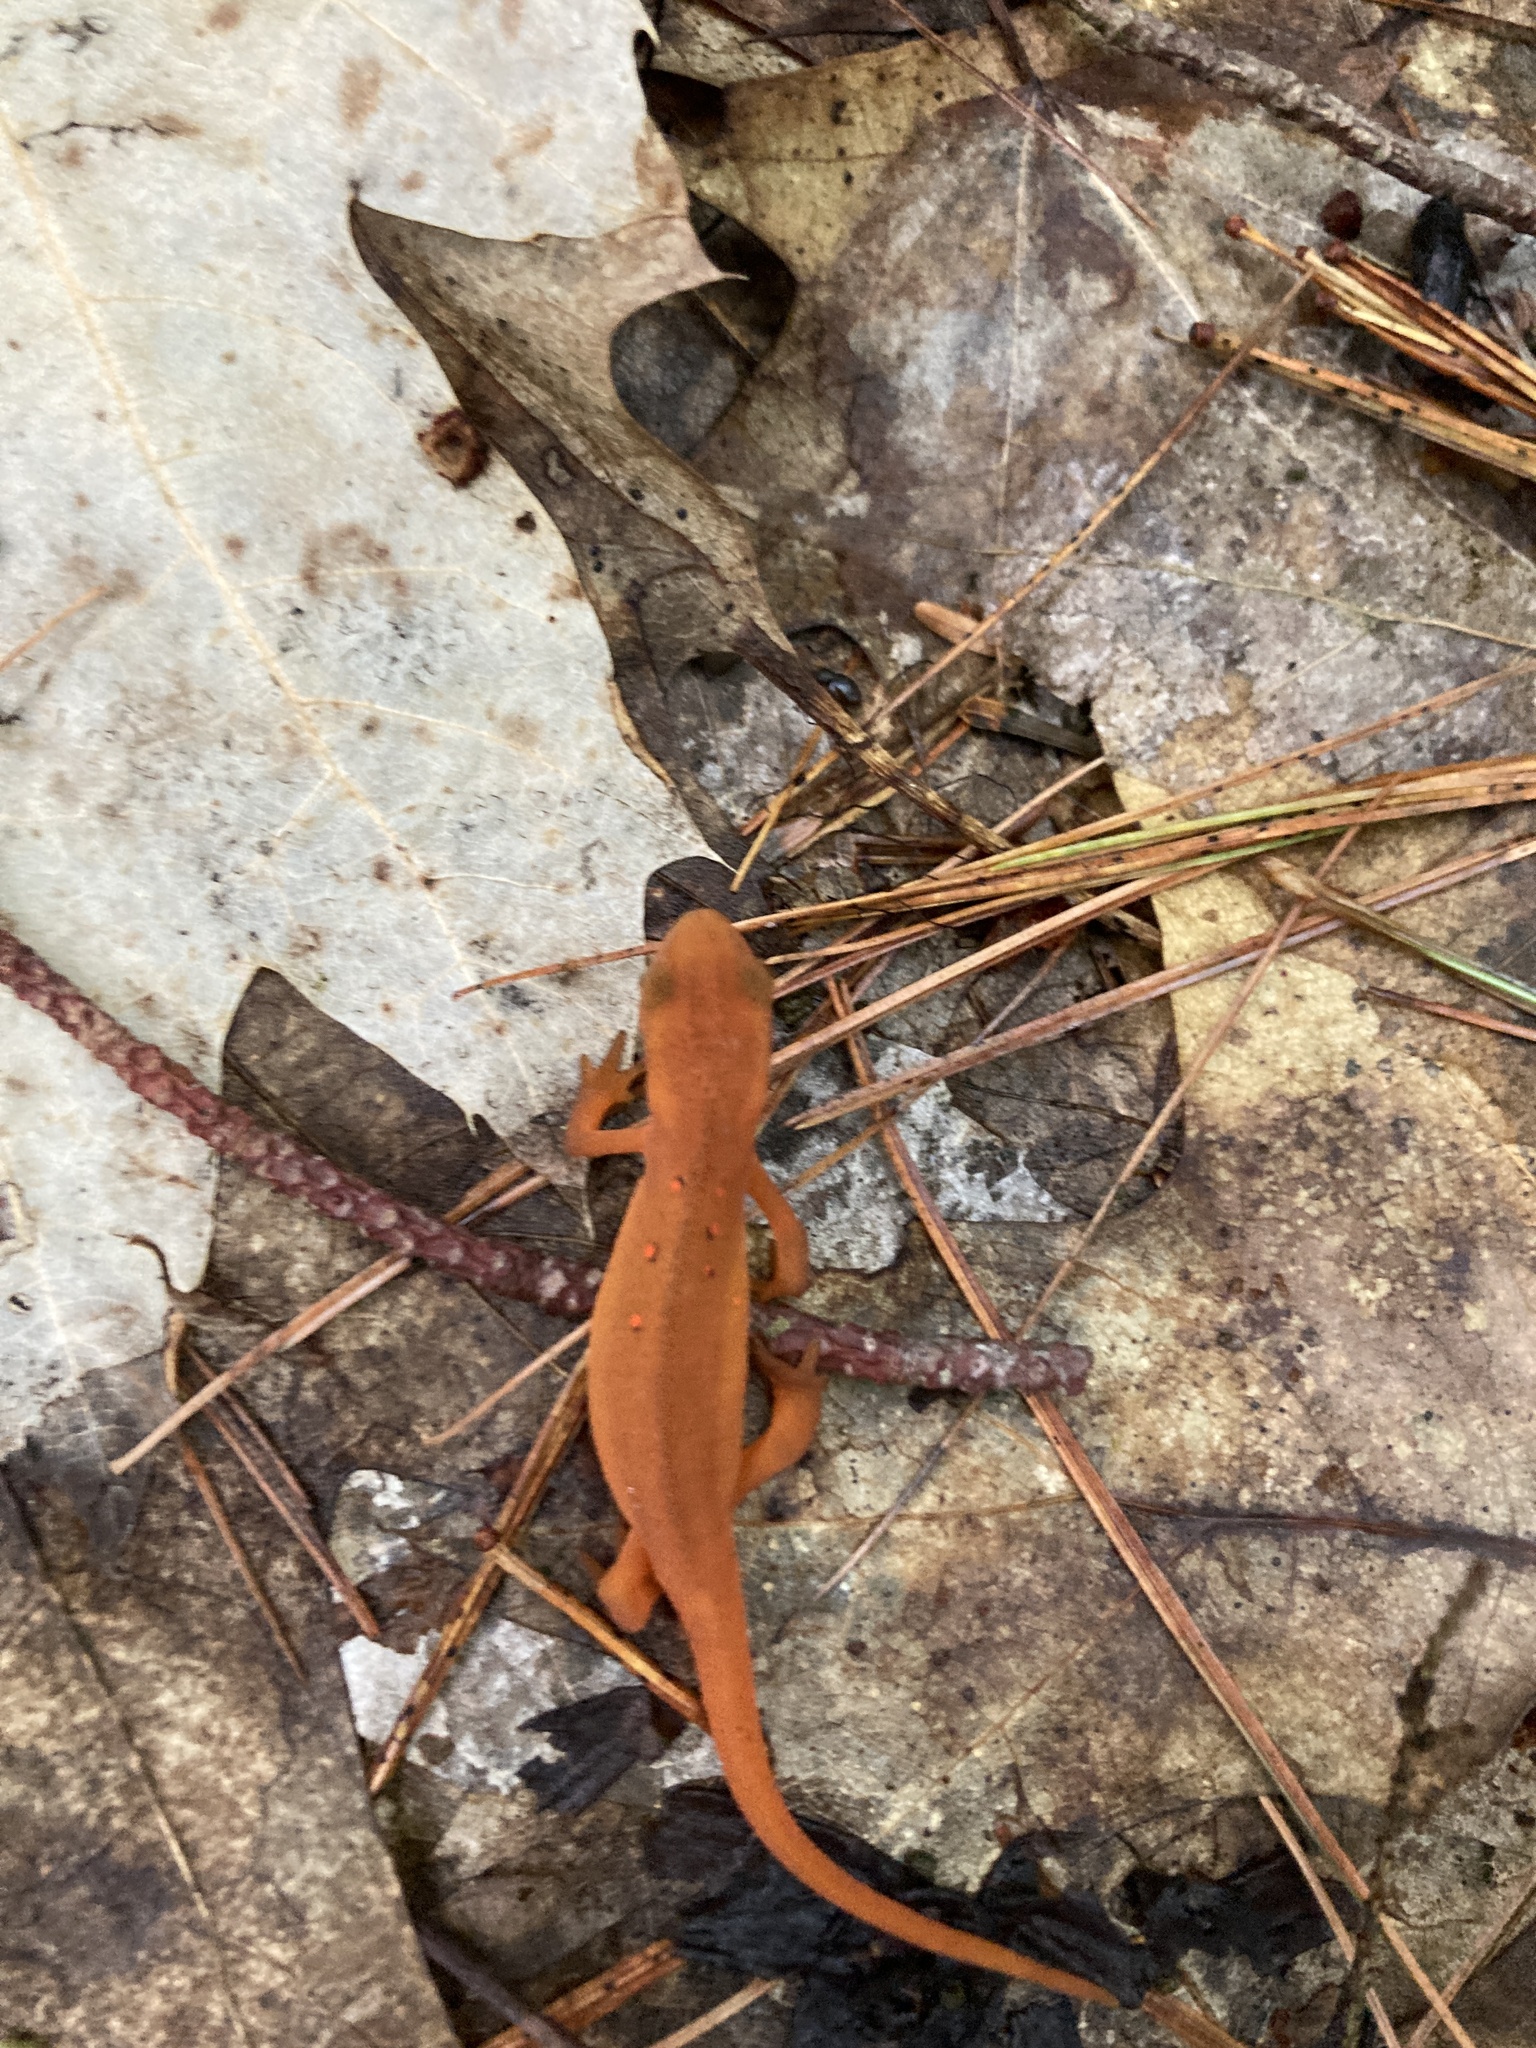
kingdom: Animalia
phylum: Chordata
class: Amphibia
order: Caudata
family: Salamandridae
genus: Notophthalmus
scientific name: Notophthalmus viridescens
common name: Eastern newt
